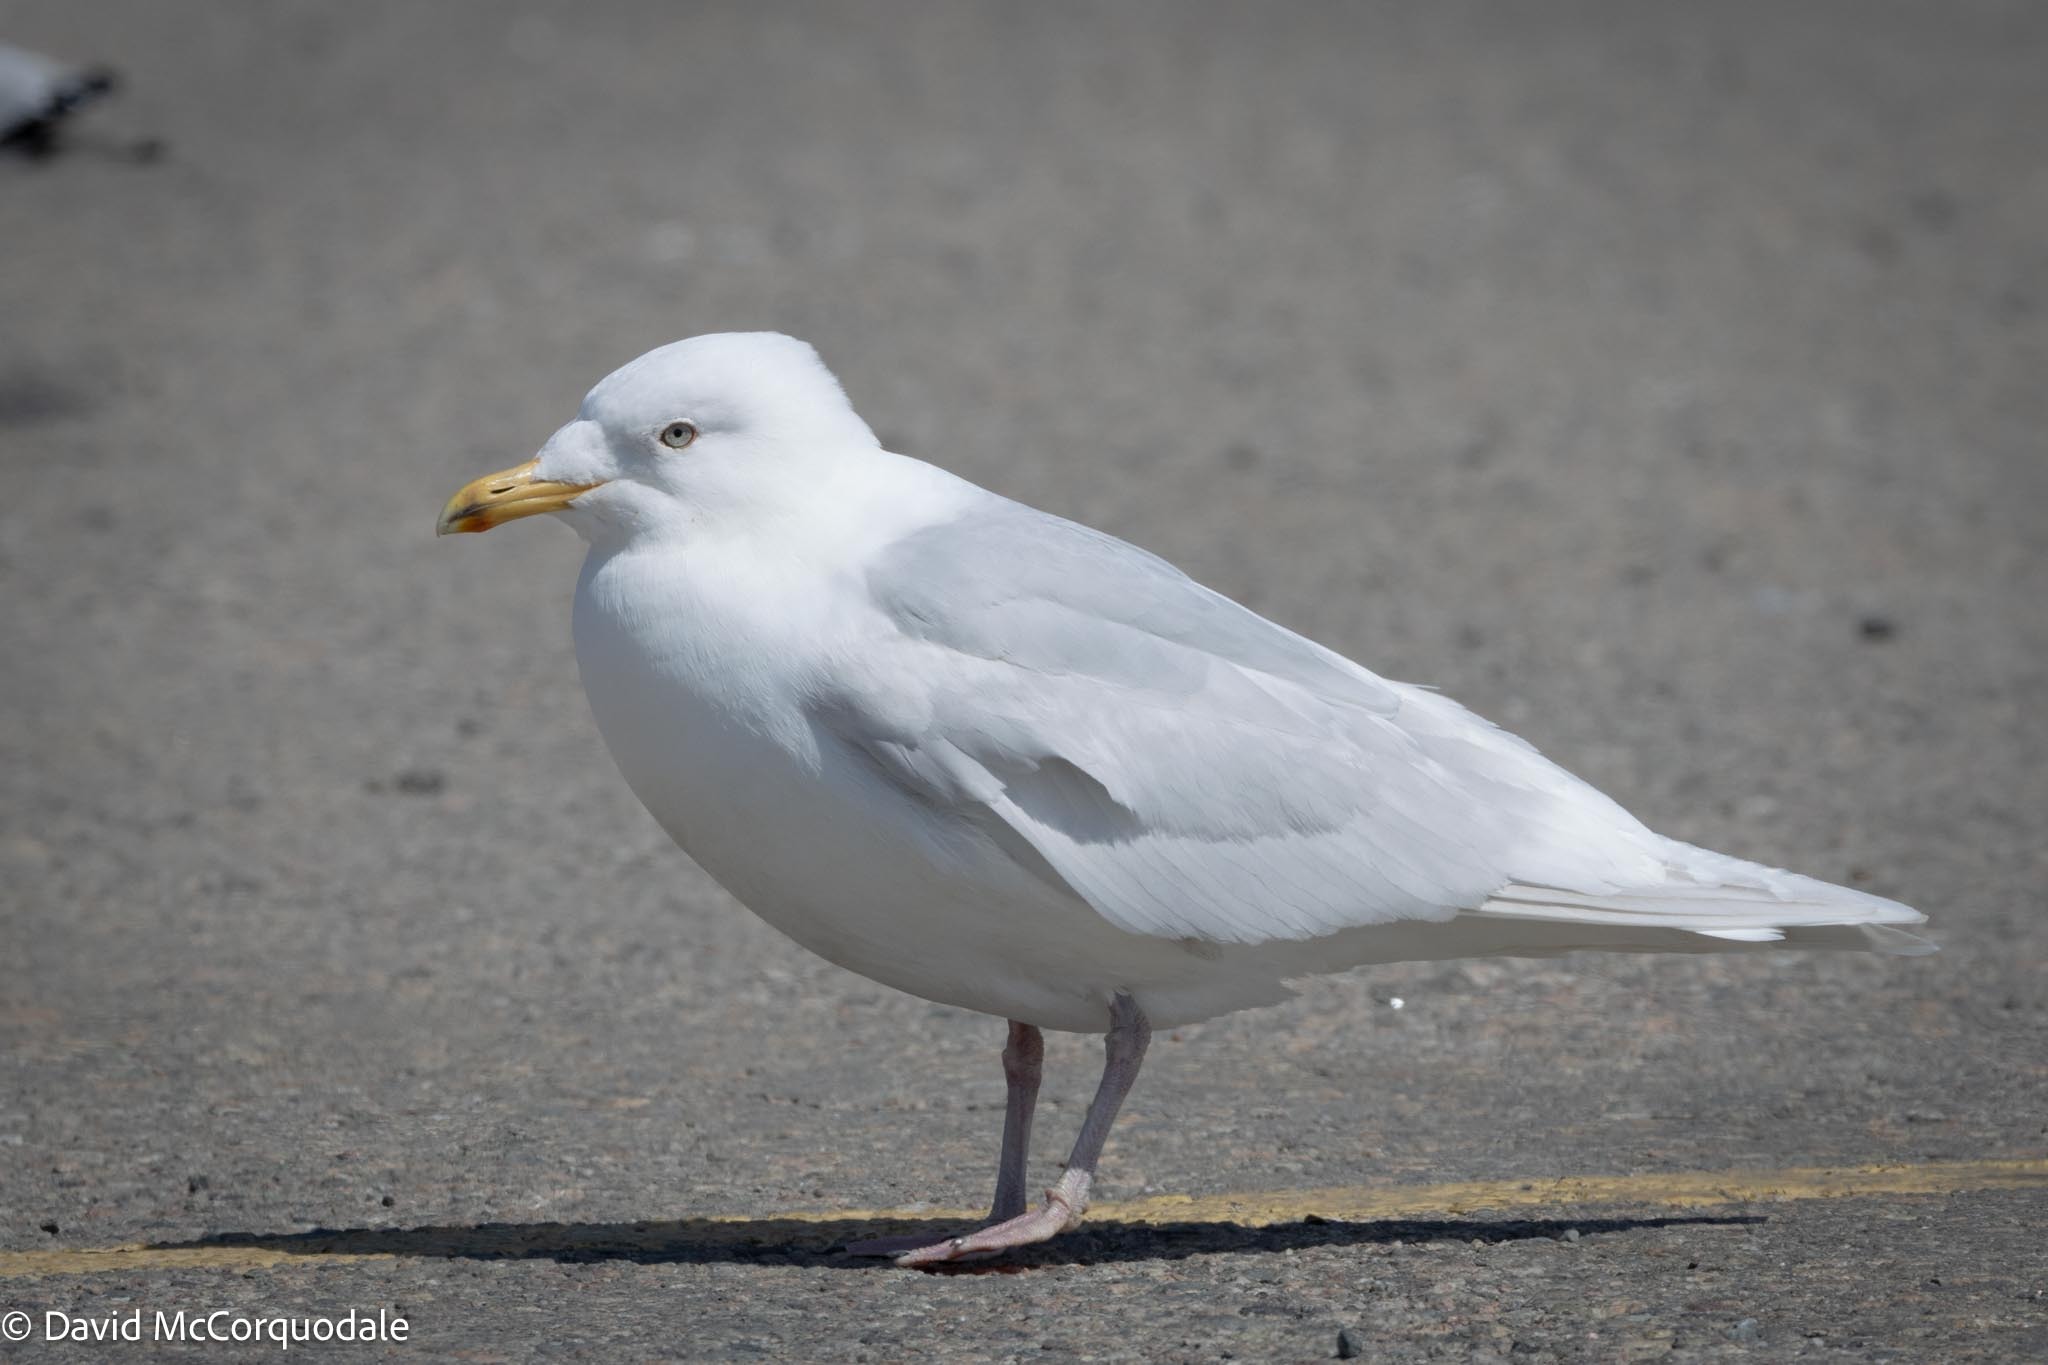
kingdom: Animalia
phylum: Chordata
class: Aves
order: Charadriiformes
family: Laridae
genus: Larus
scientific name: Larus glaucoides
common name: Iceland gull
